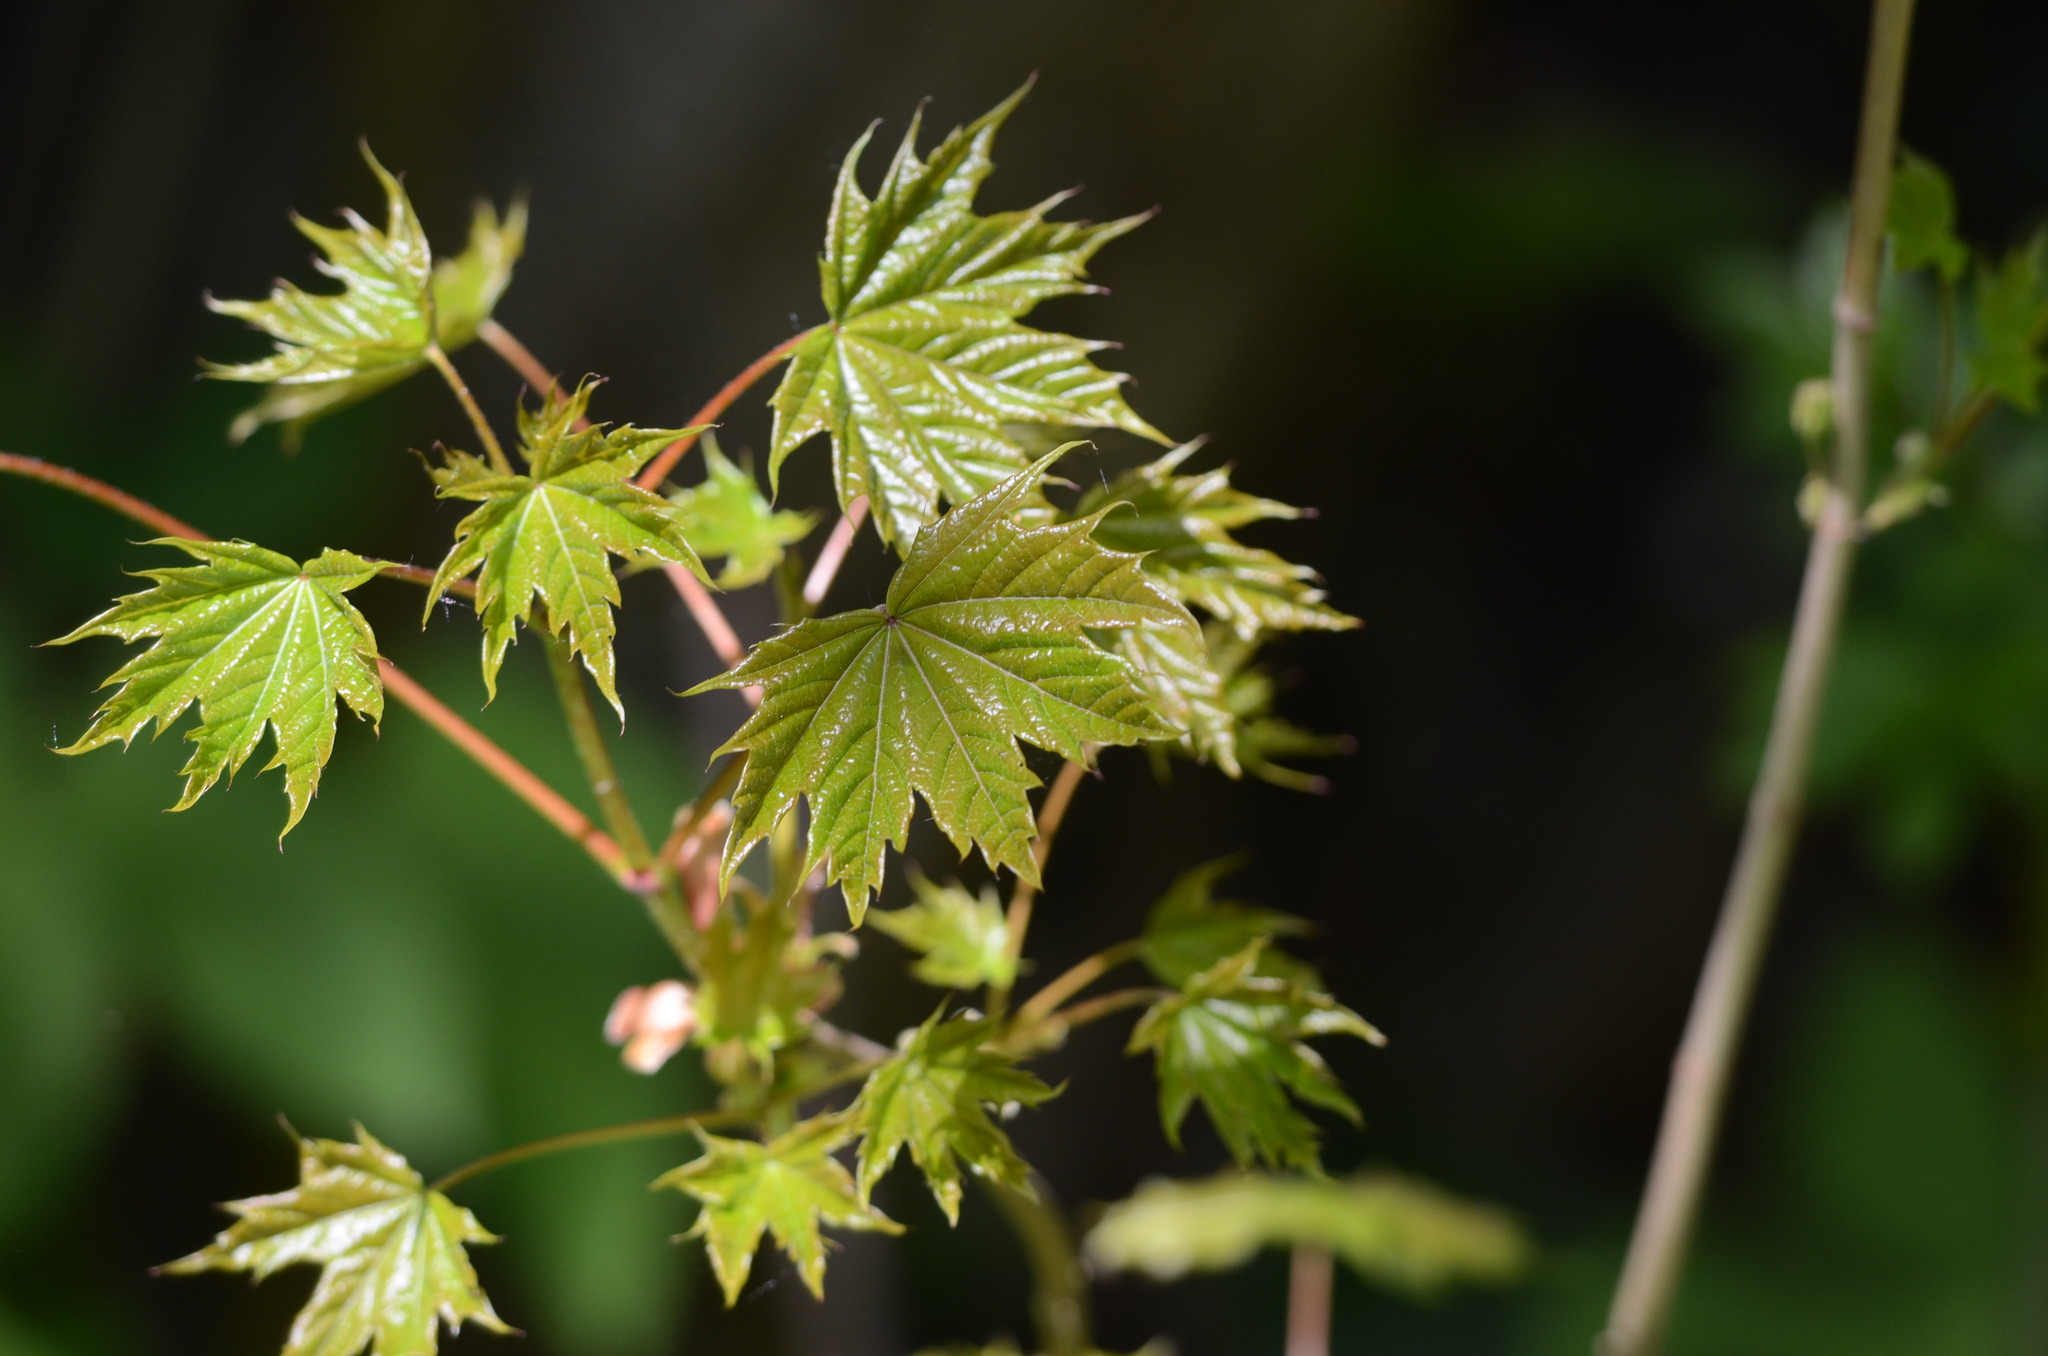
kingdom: Plantae
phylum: Tracheophyta
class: Magnoliopsida
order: Sapindales
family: Sapindaceae
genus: Acer
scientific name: Acer platanoides
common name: Norway maple
